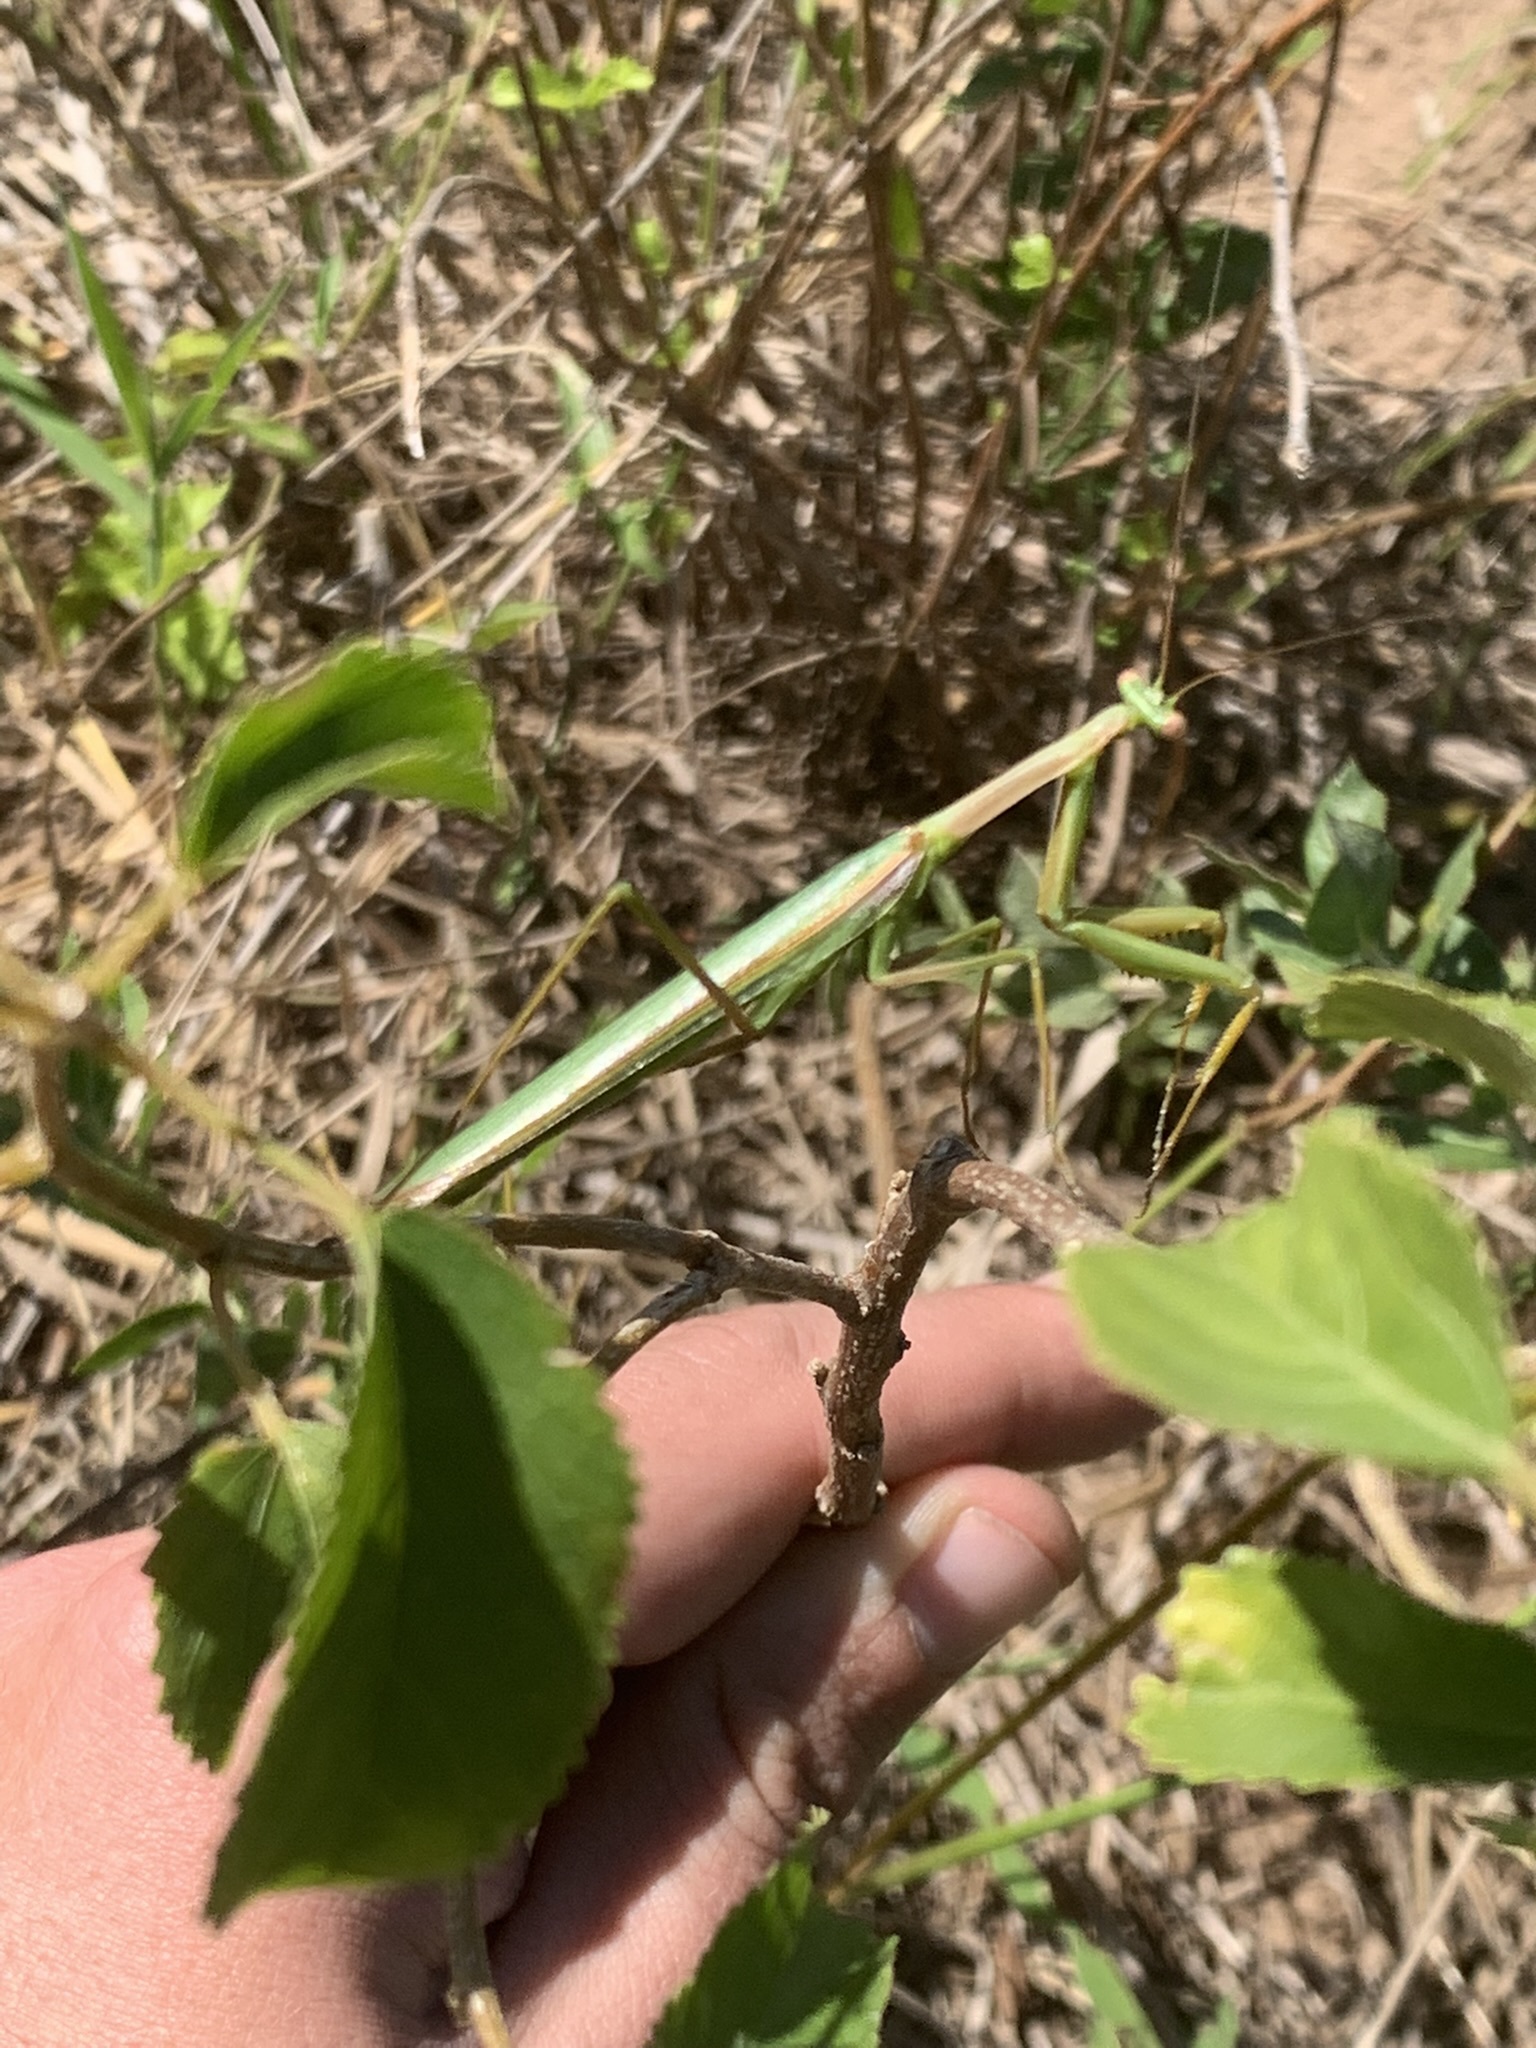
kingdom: Animalia
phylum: Arthropoda
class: Insecta
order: Mantodea
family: Coptopterygidae
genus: Coptopteryx
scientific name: Coptopteryx argentina
